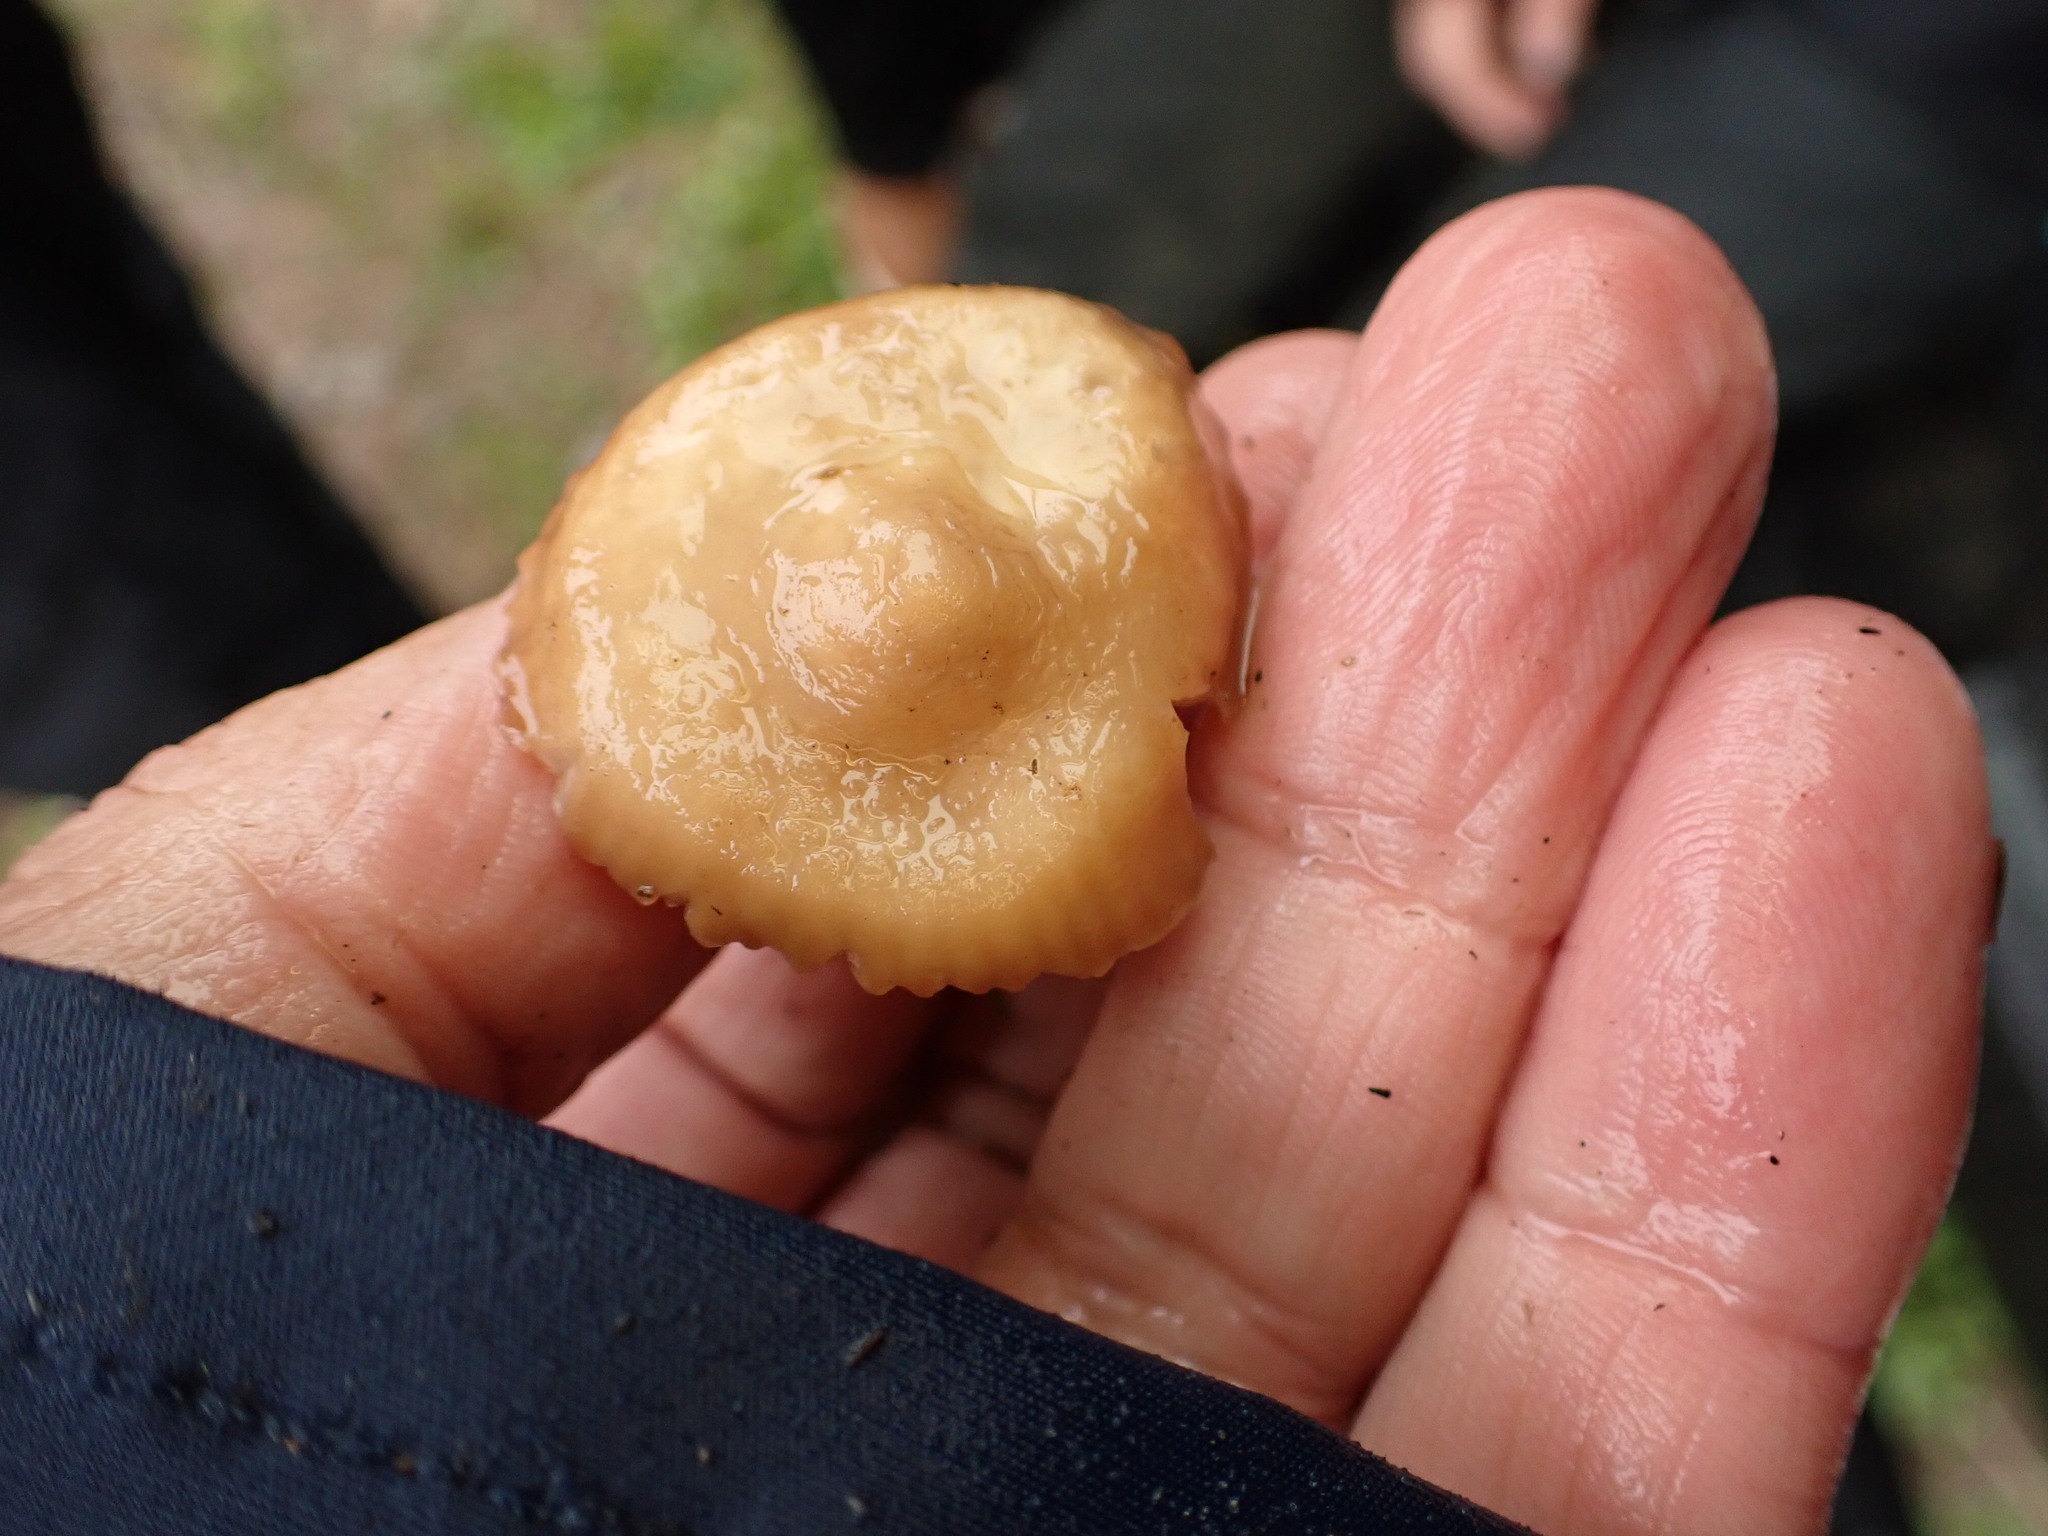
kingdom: Fungi
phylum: Basidiomycota
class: Agaricomycetes
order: Agaricales
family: Marasmiaceae
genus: Marasmius
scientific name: Marasmius oreades
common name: Fairy ring champignon
